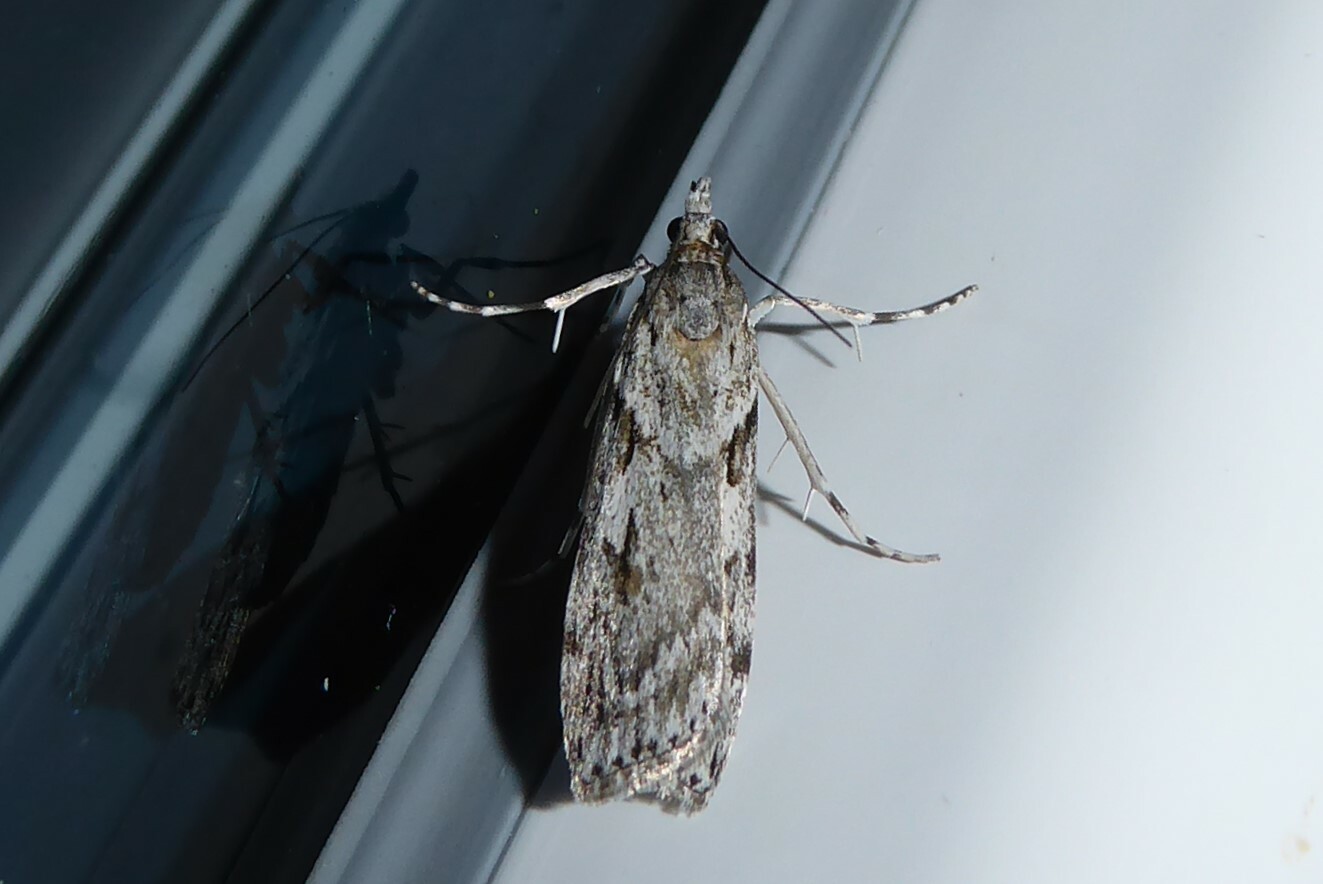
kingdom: Animalia
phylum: Arthropoda
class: Insecta
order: Lepidoptera
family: Crambidae
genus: Scoparia
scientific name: Scoparia halopis
